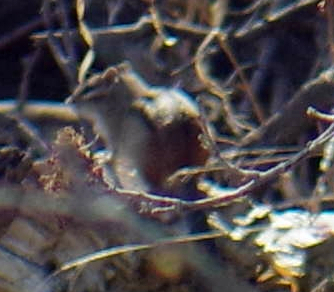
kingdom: Animalia
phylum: Chordata
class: Mammalia
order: Rodentia
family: Sciuridae
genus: Tamias
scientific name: Tamias striatus
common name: Eastern chipmunk
